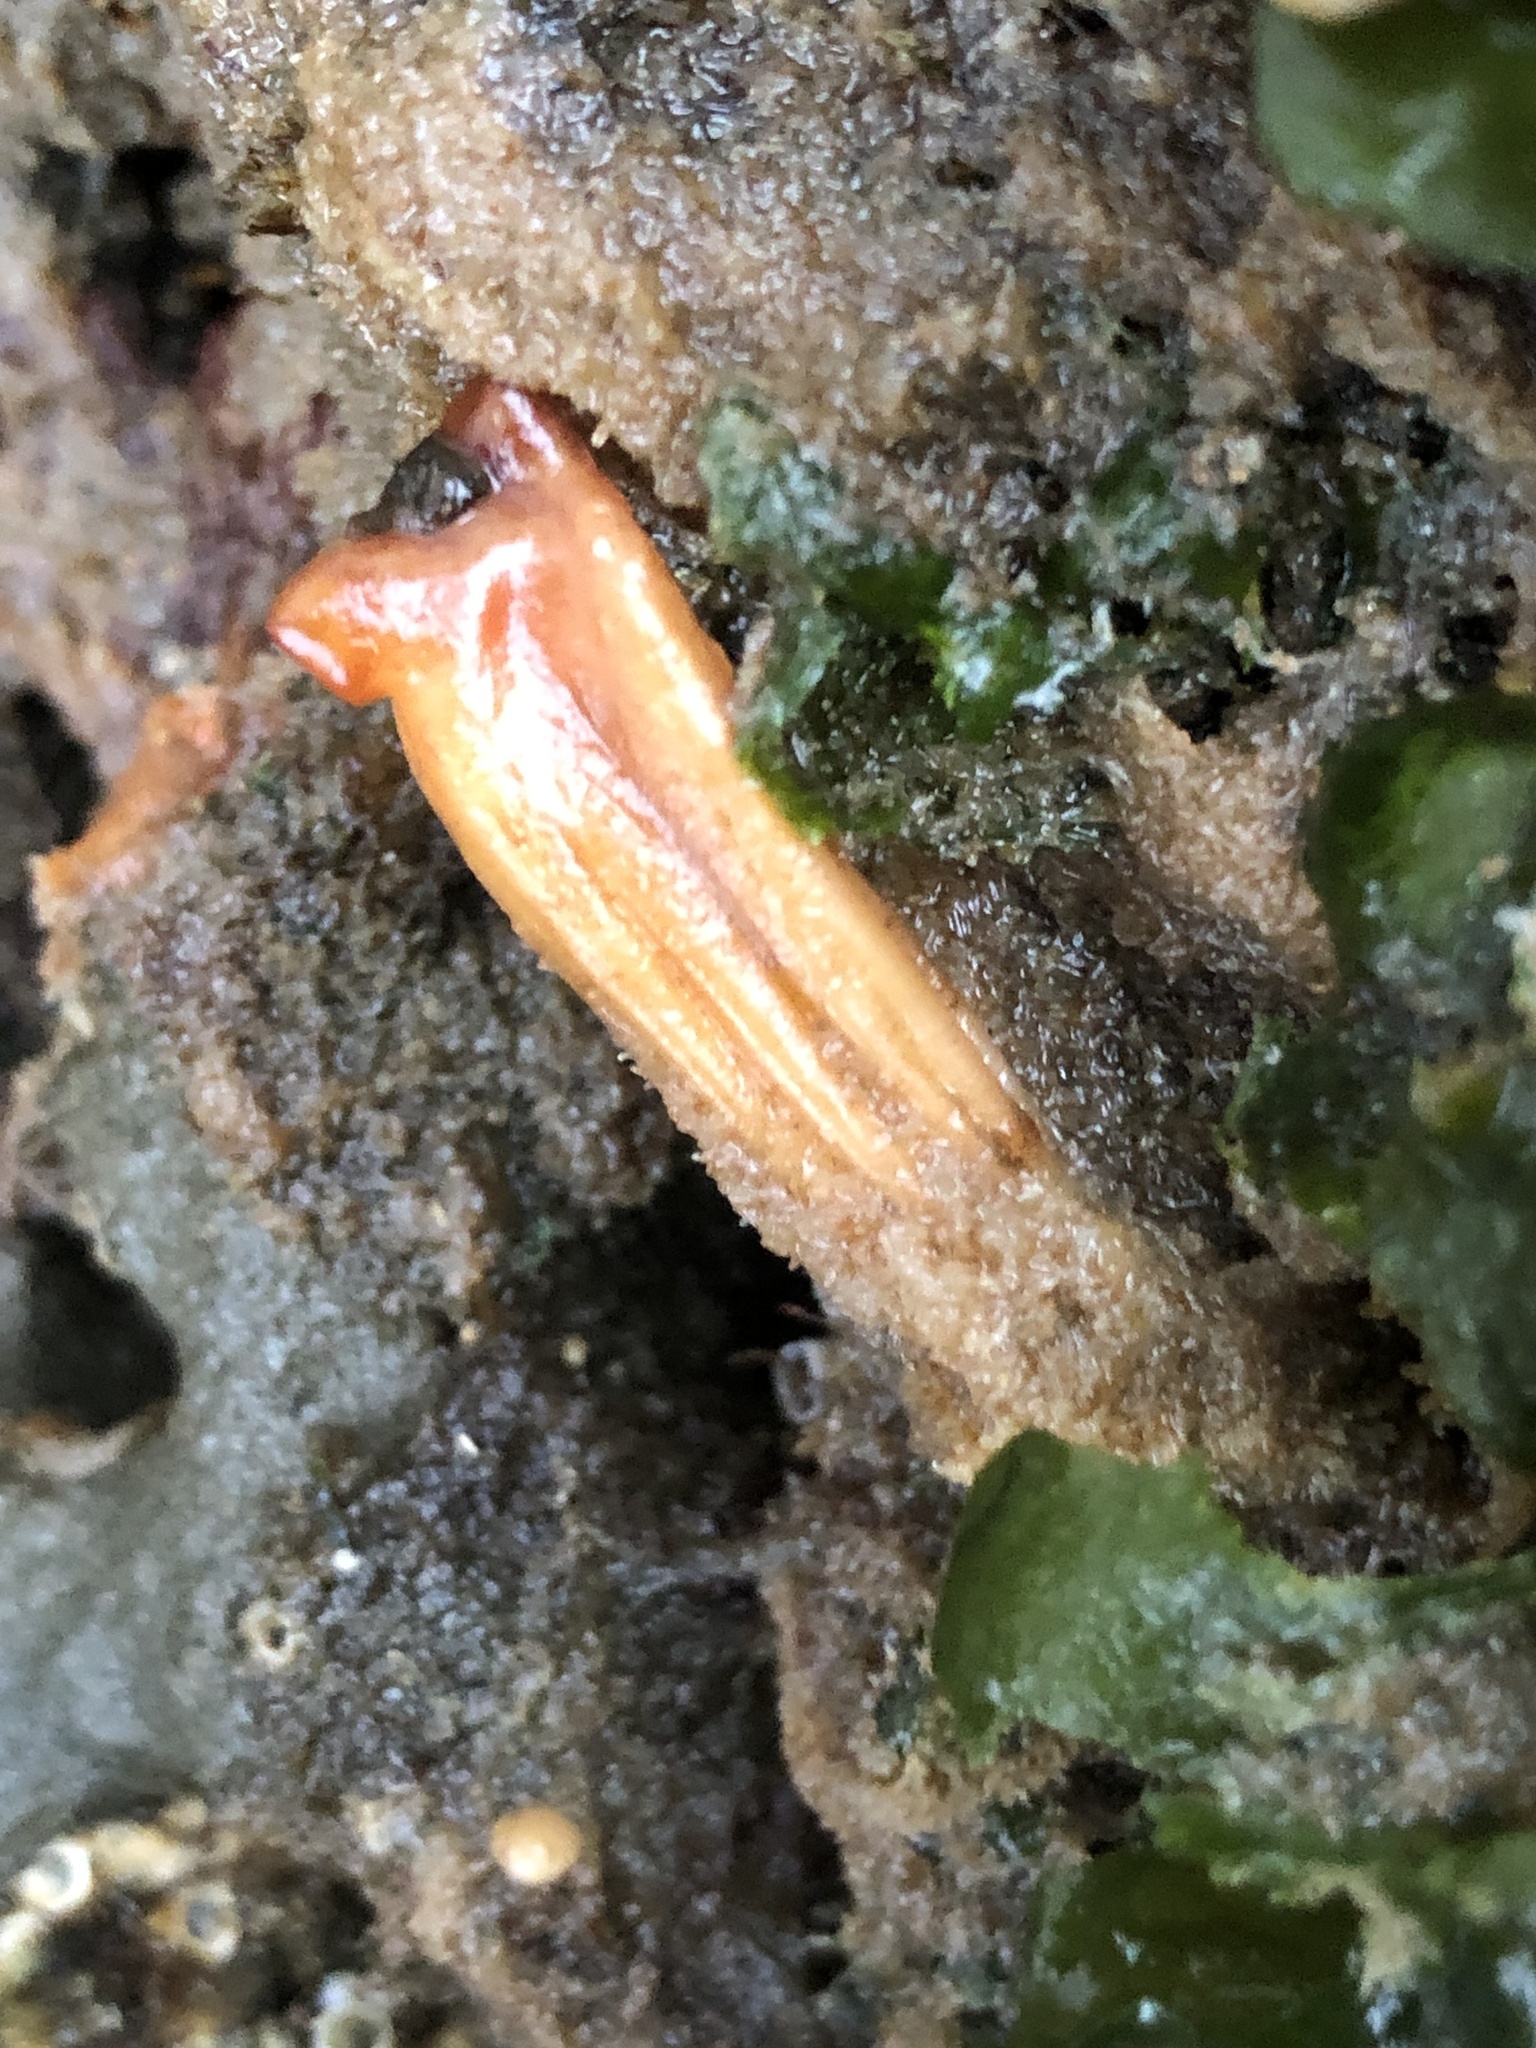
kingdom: Animalia
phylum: Chordata
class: Ascidiacea
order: Stolidobranchia
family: Styelidae
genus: Styela
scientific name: Styela montereyensis
